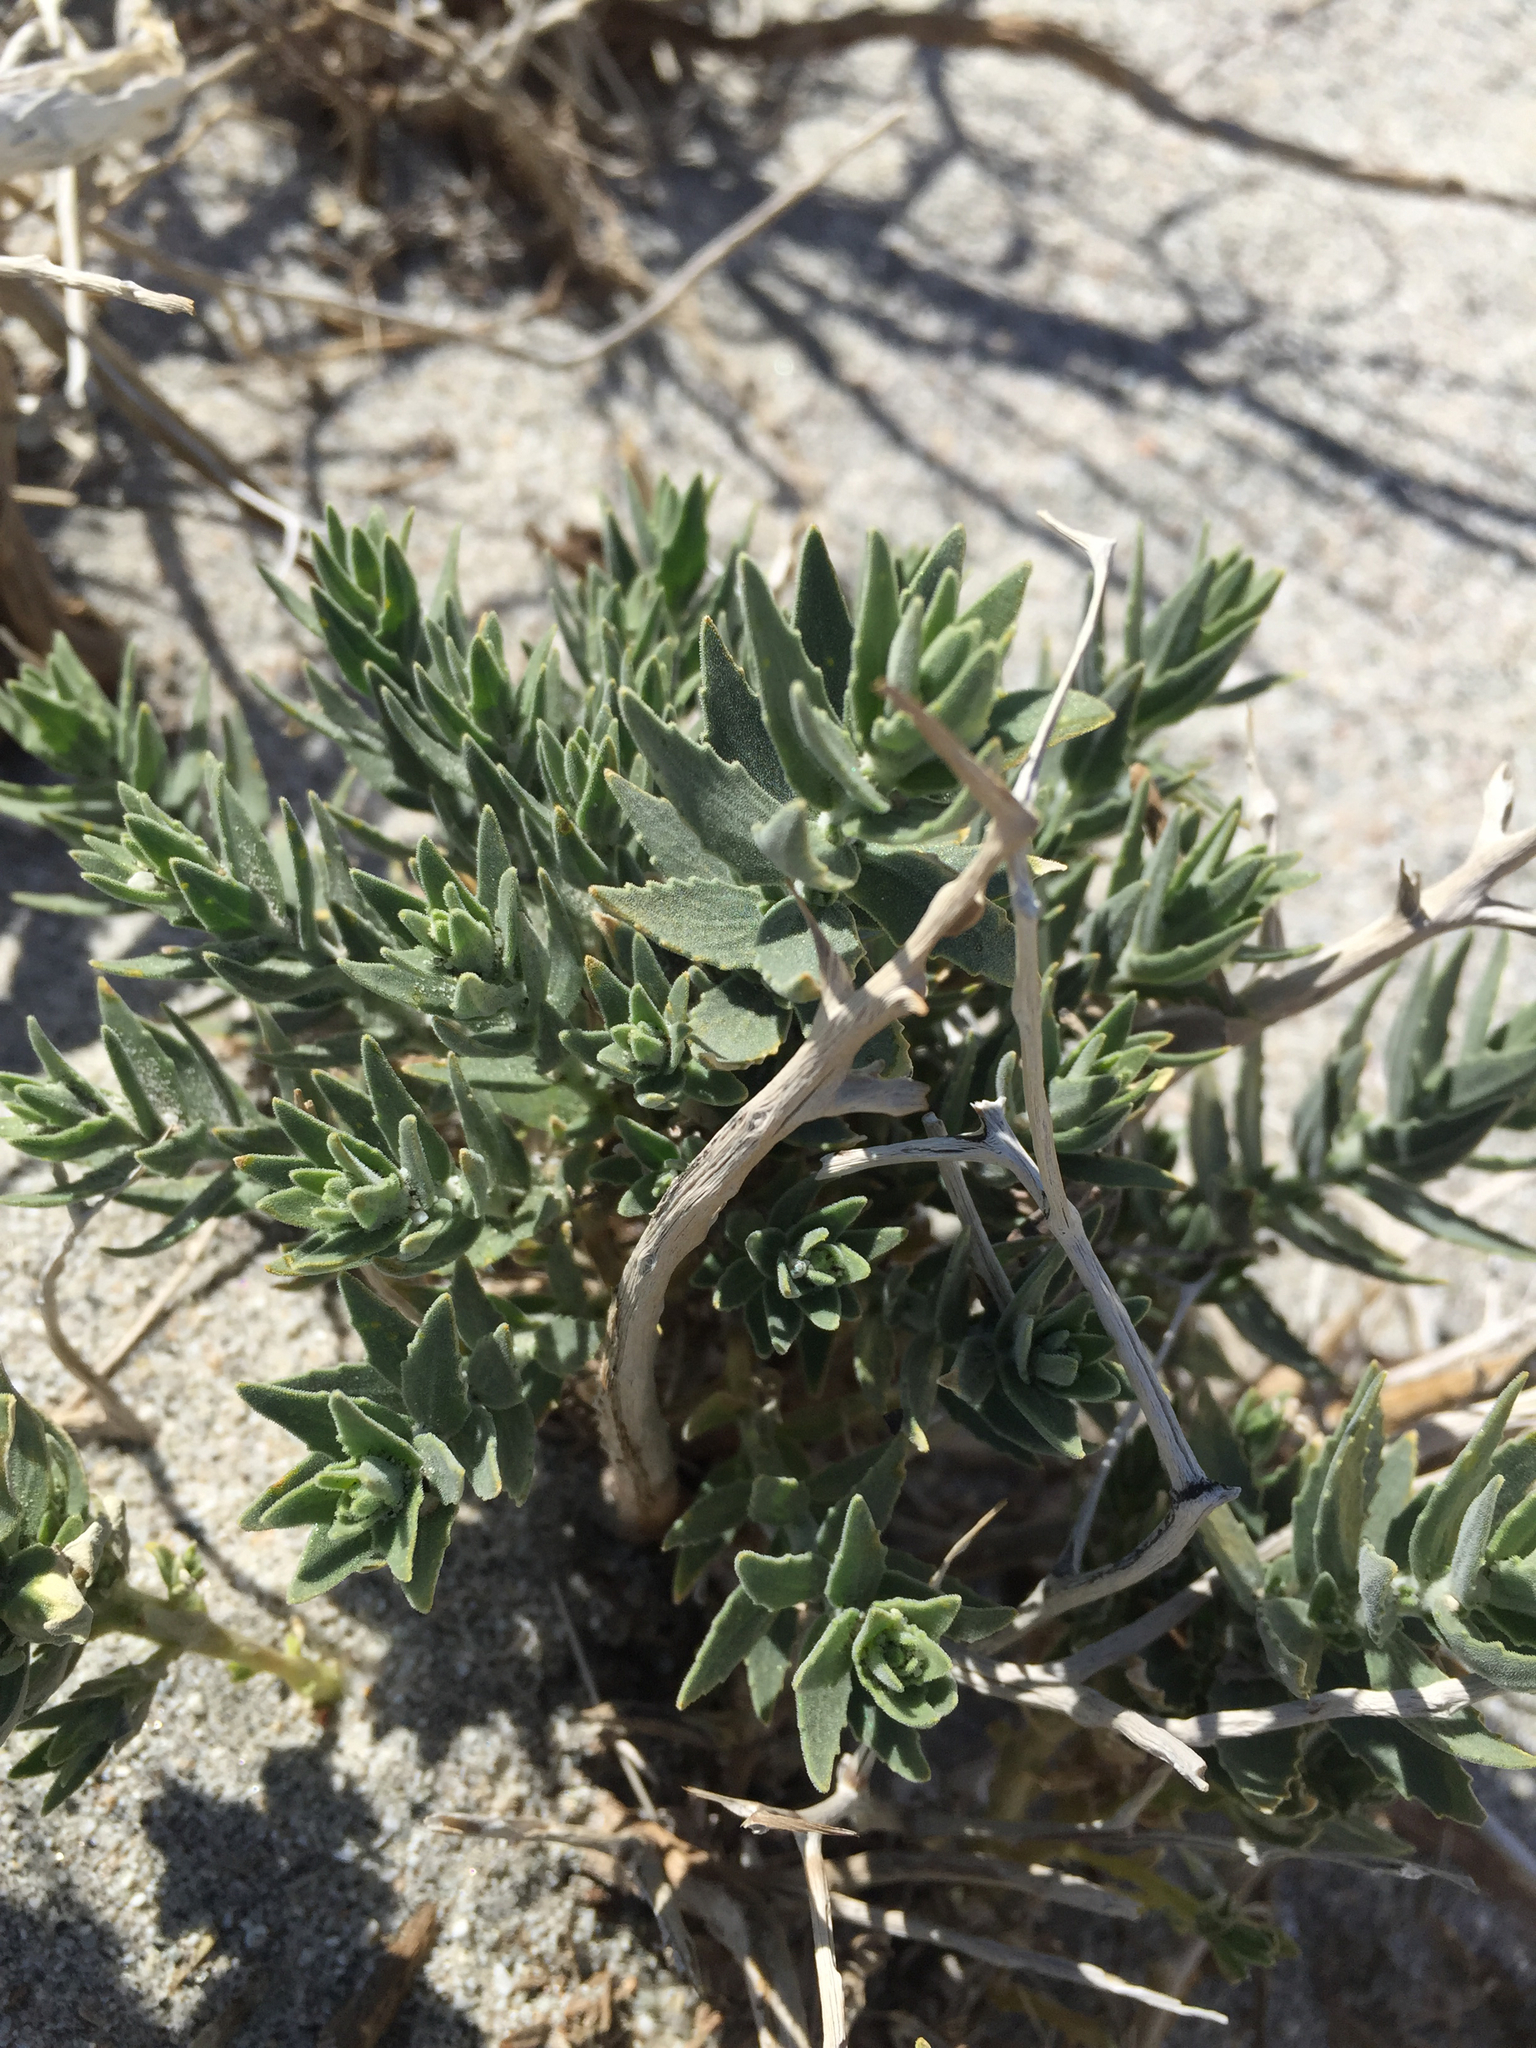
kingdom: Plantae
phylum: Tracheophyta
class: Magnoliopsida
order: Cornales
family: Loasaceae
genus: Petalonyx
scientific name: Petalonyx thurberi
